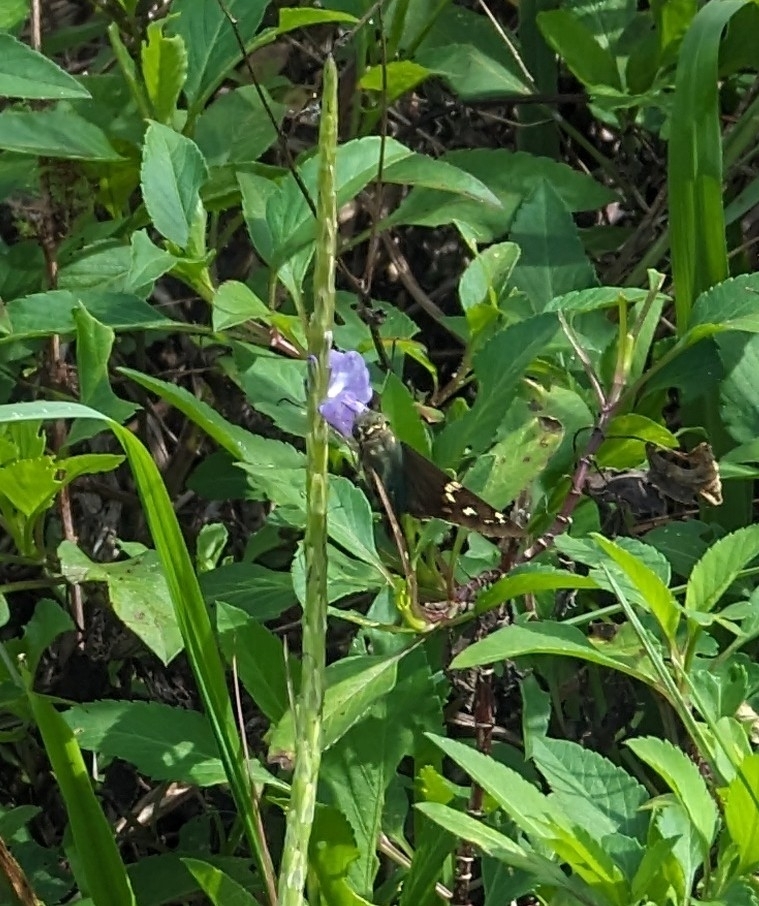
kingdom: Animalia
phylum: Arthropoda
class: Insecta
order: Lepidoptera
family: Hesperiidae
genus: Urbanus
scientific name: Urbanus proteus
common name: Long-tailed skipper
